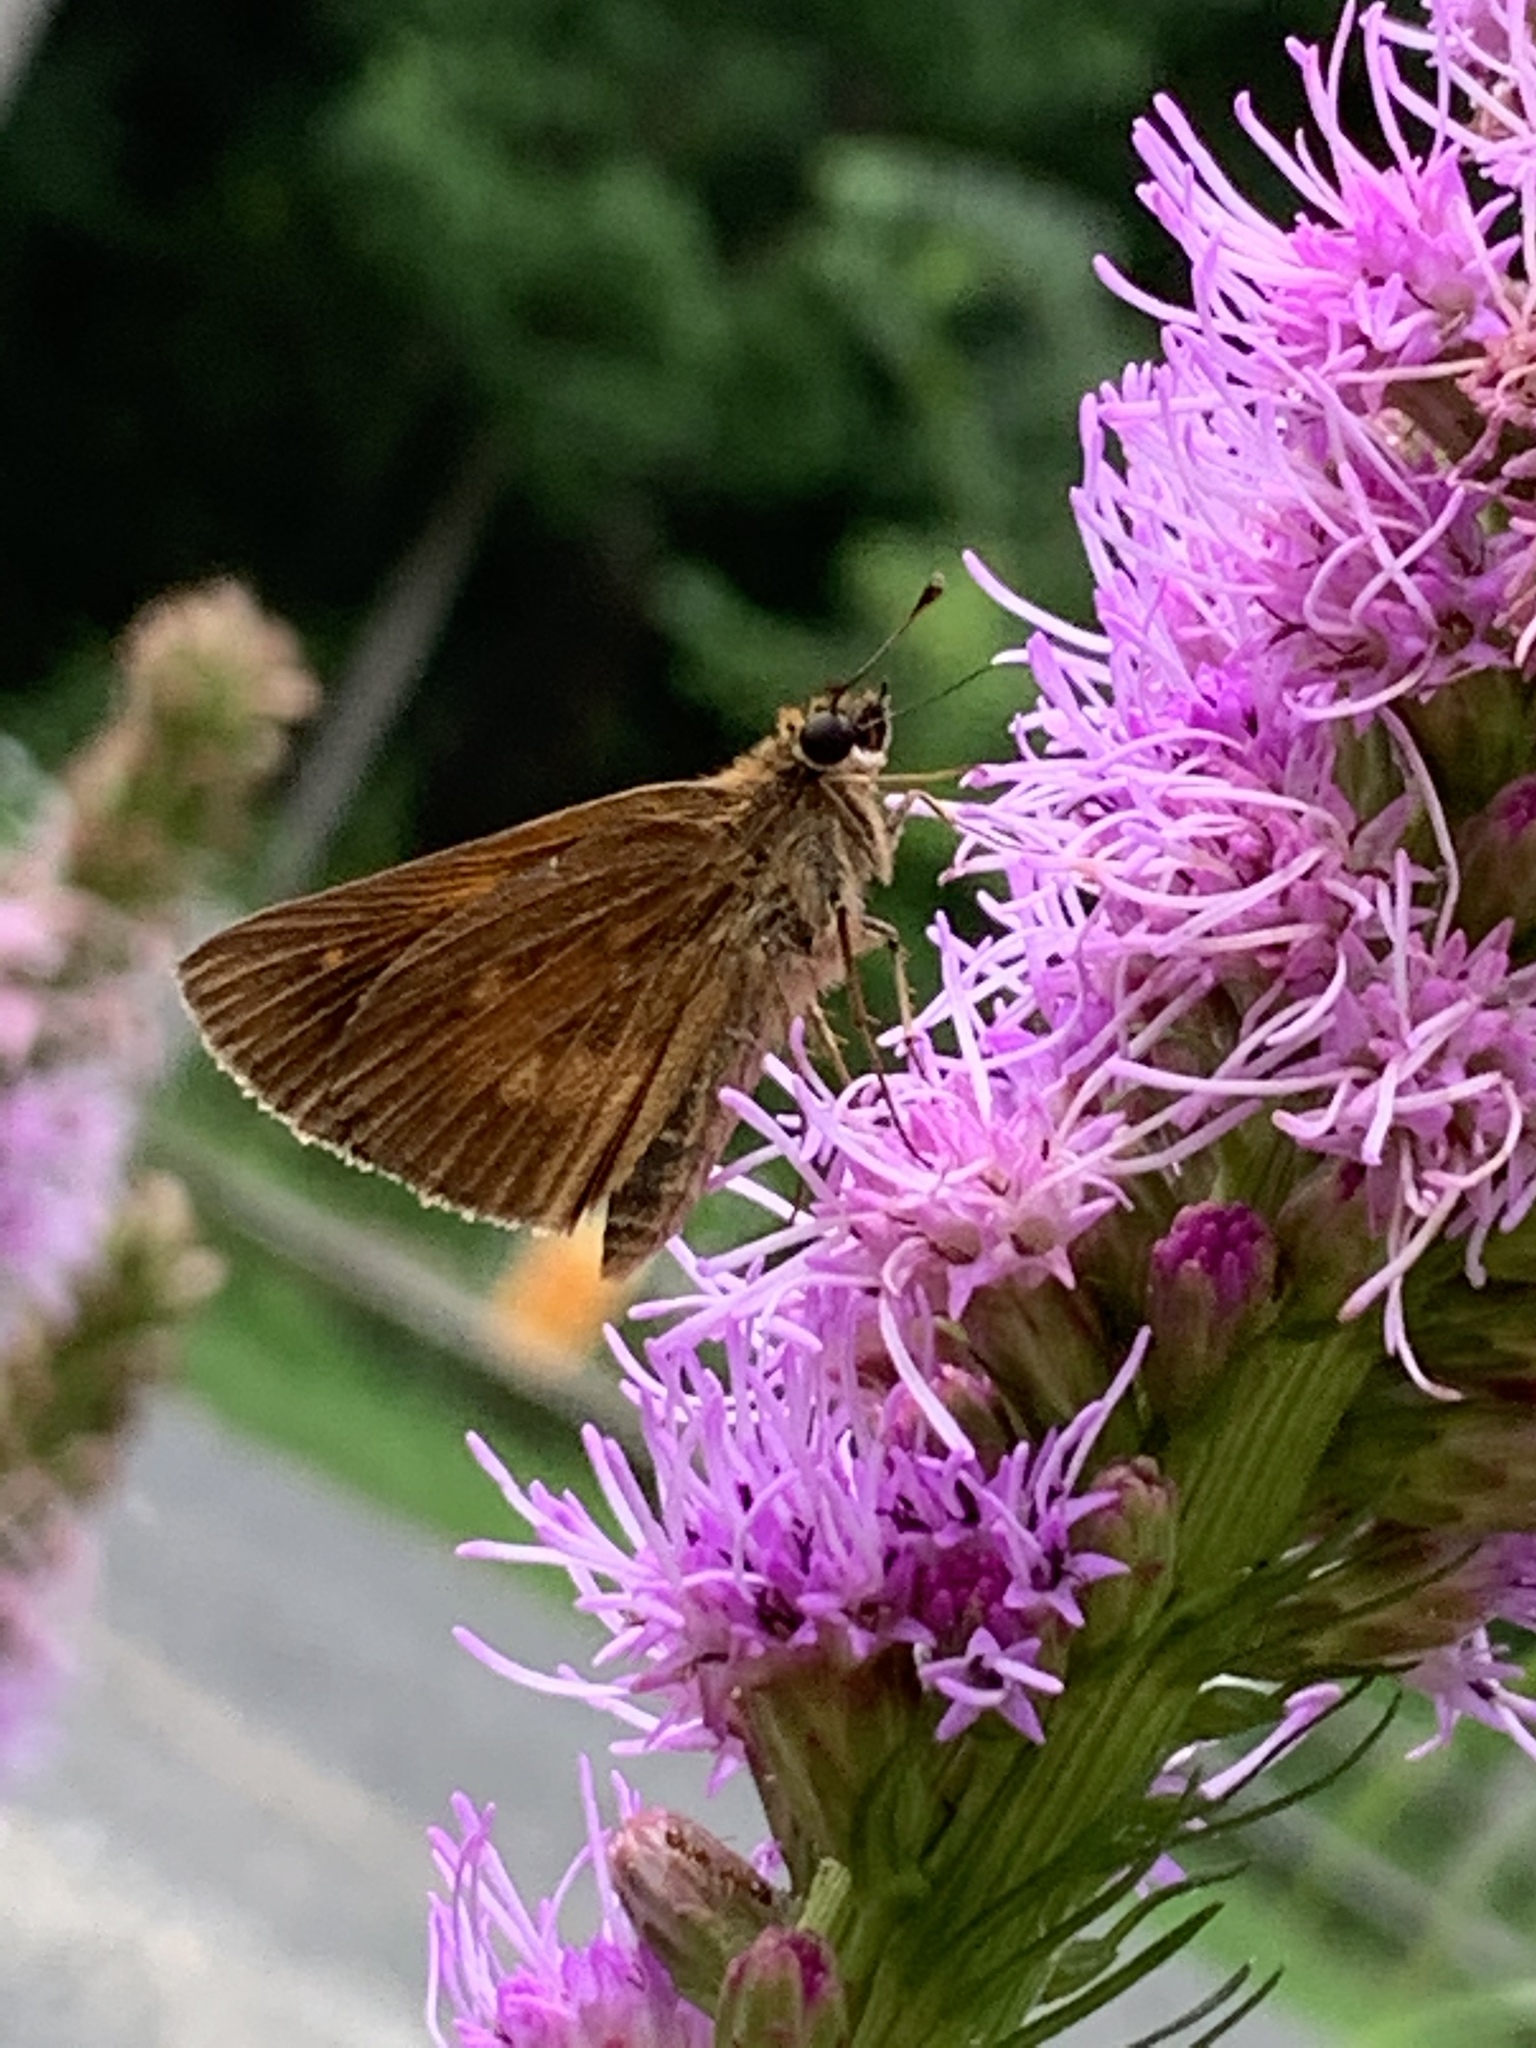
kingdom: Animalia
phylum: Arthropoda
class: Insecta
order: Lepidoptera
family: Hesperiidae
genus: Poanes
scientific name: Poanes viator
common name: Broad-winged skipper
